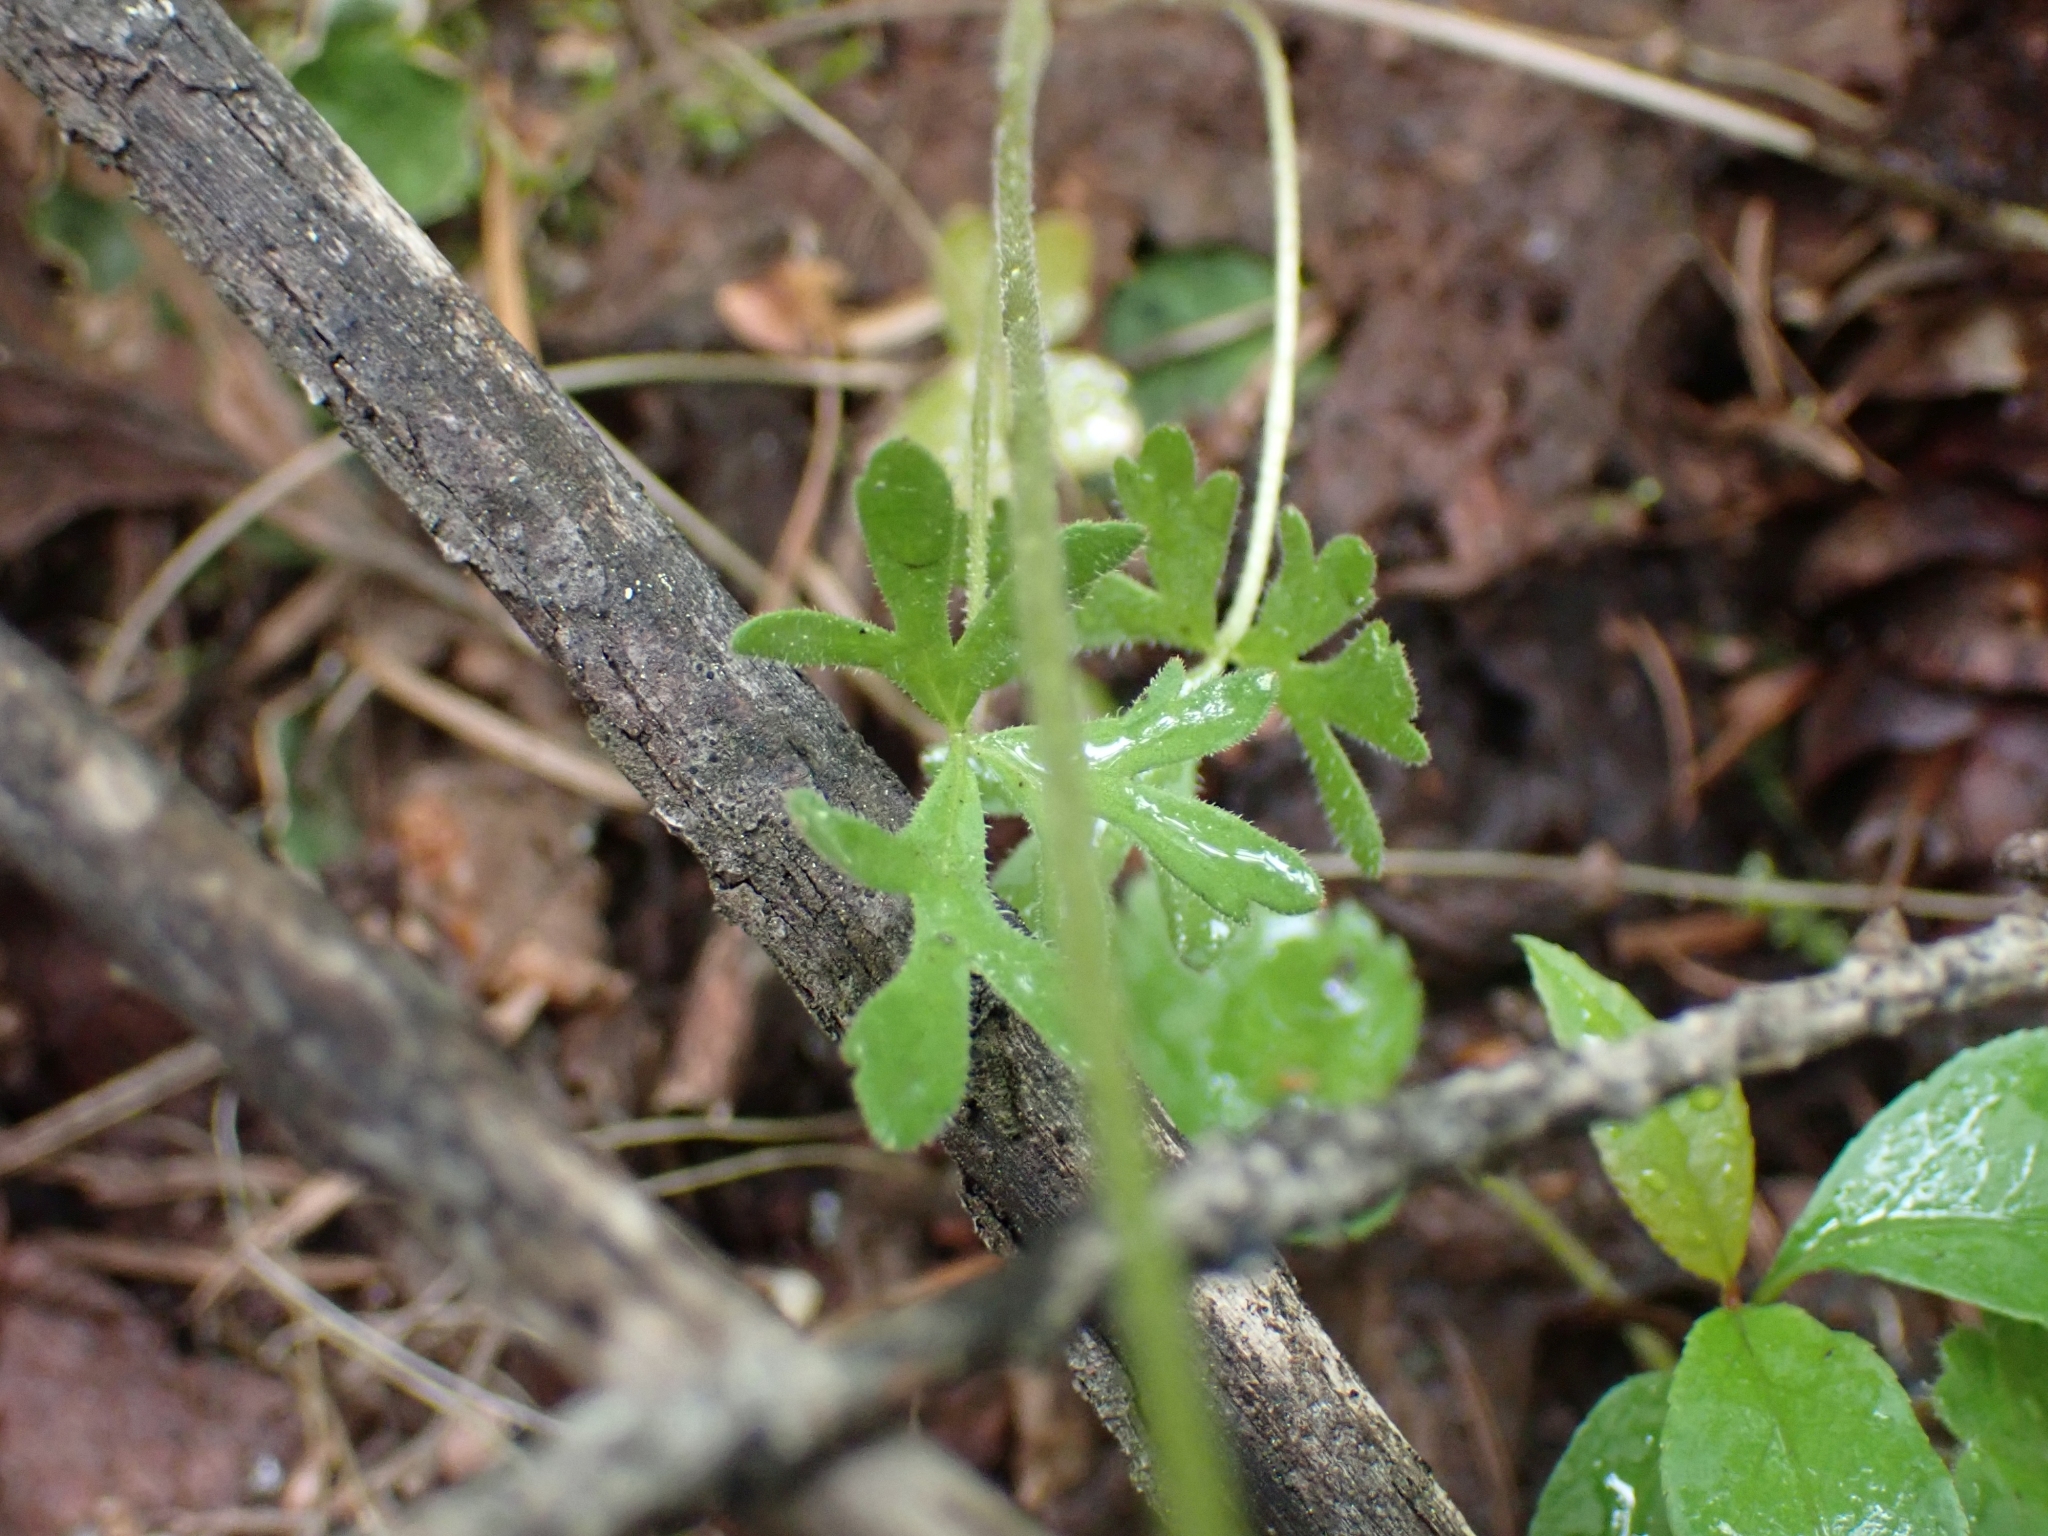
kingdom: Plantae
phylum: Tracheophyta
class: Magnoliopsida
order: Saxifragales
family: Saxifragaceae
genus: Lithophragma
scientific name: Lithophragma parviflorum
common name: Small-flowered fringe-cup
